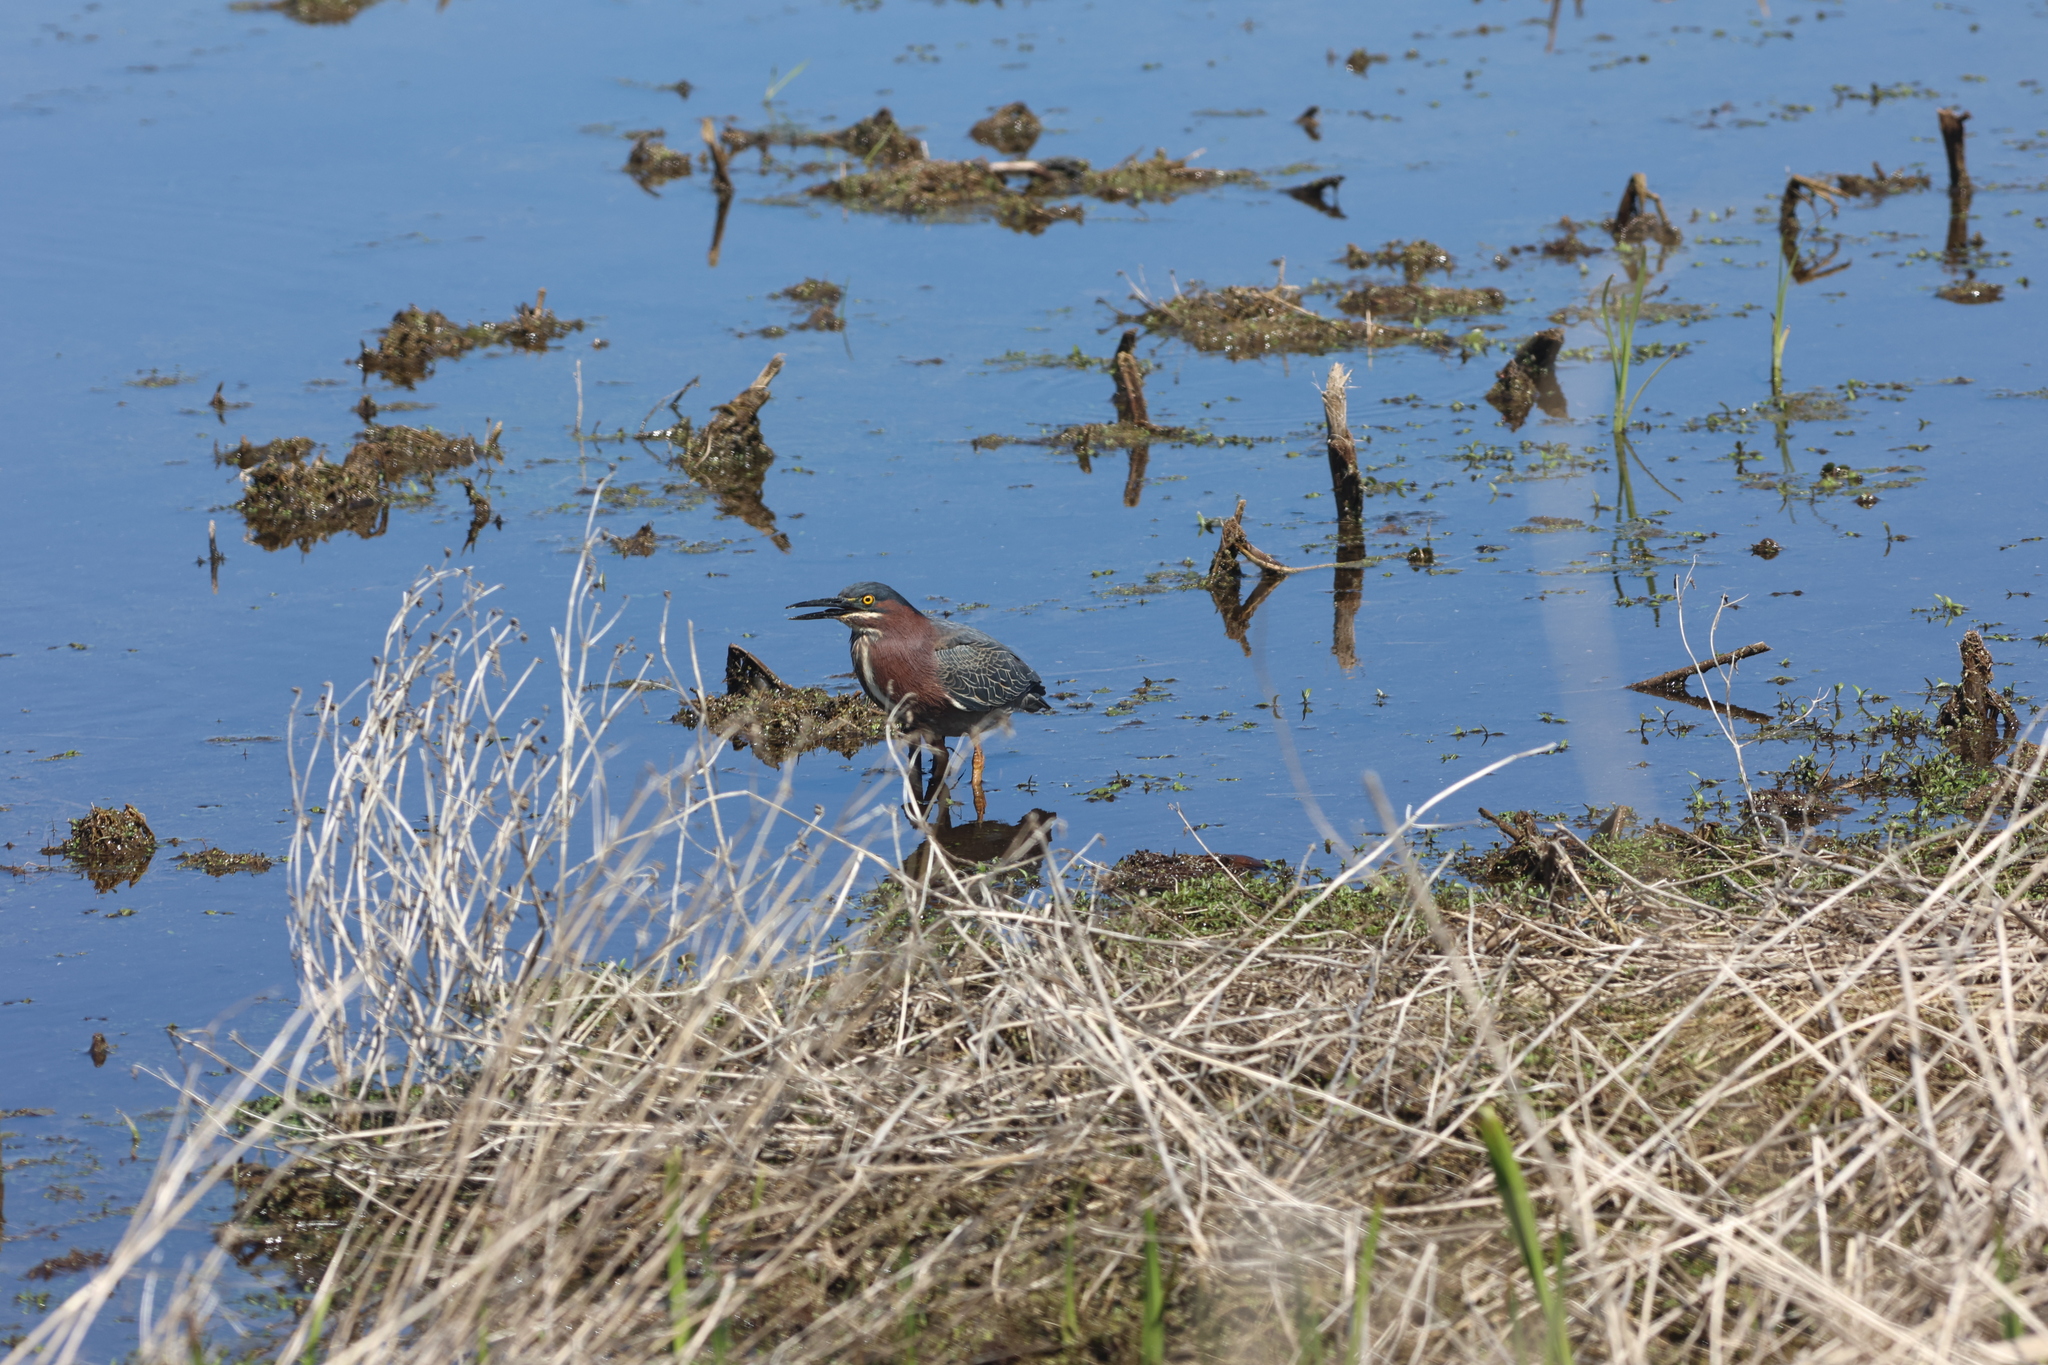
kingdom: Animalia
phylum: Chordata
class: Aves
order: Pelecaniformes
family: Ardeidae
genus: Butorides
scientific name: Butorides virescens
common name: Green heron
